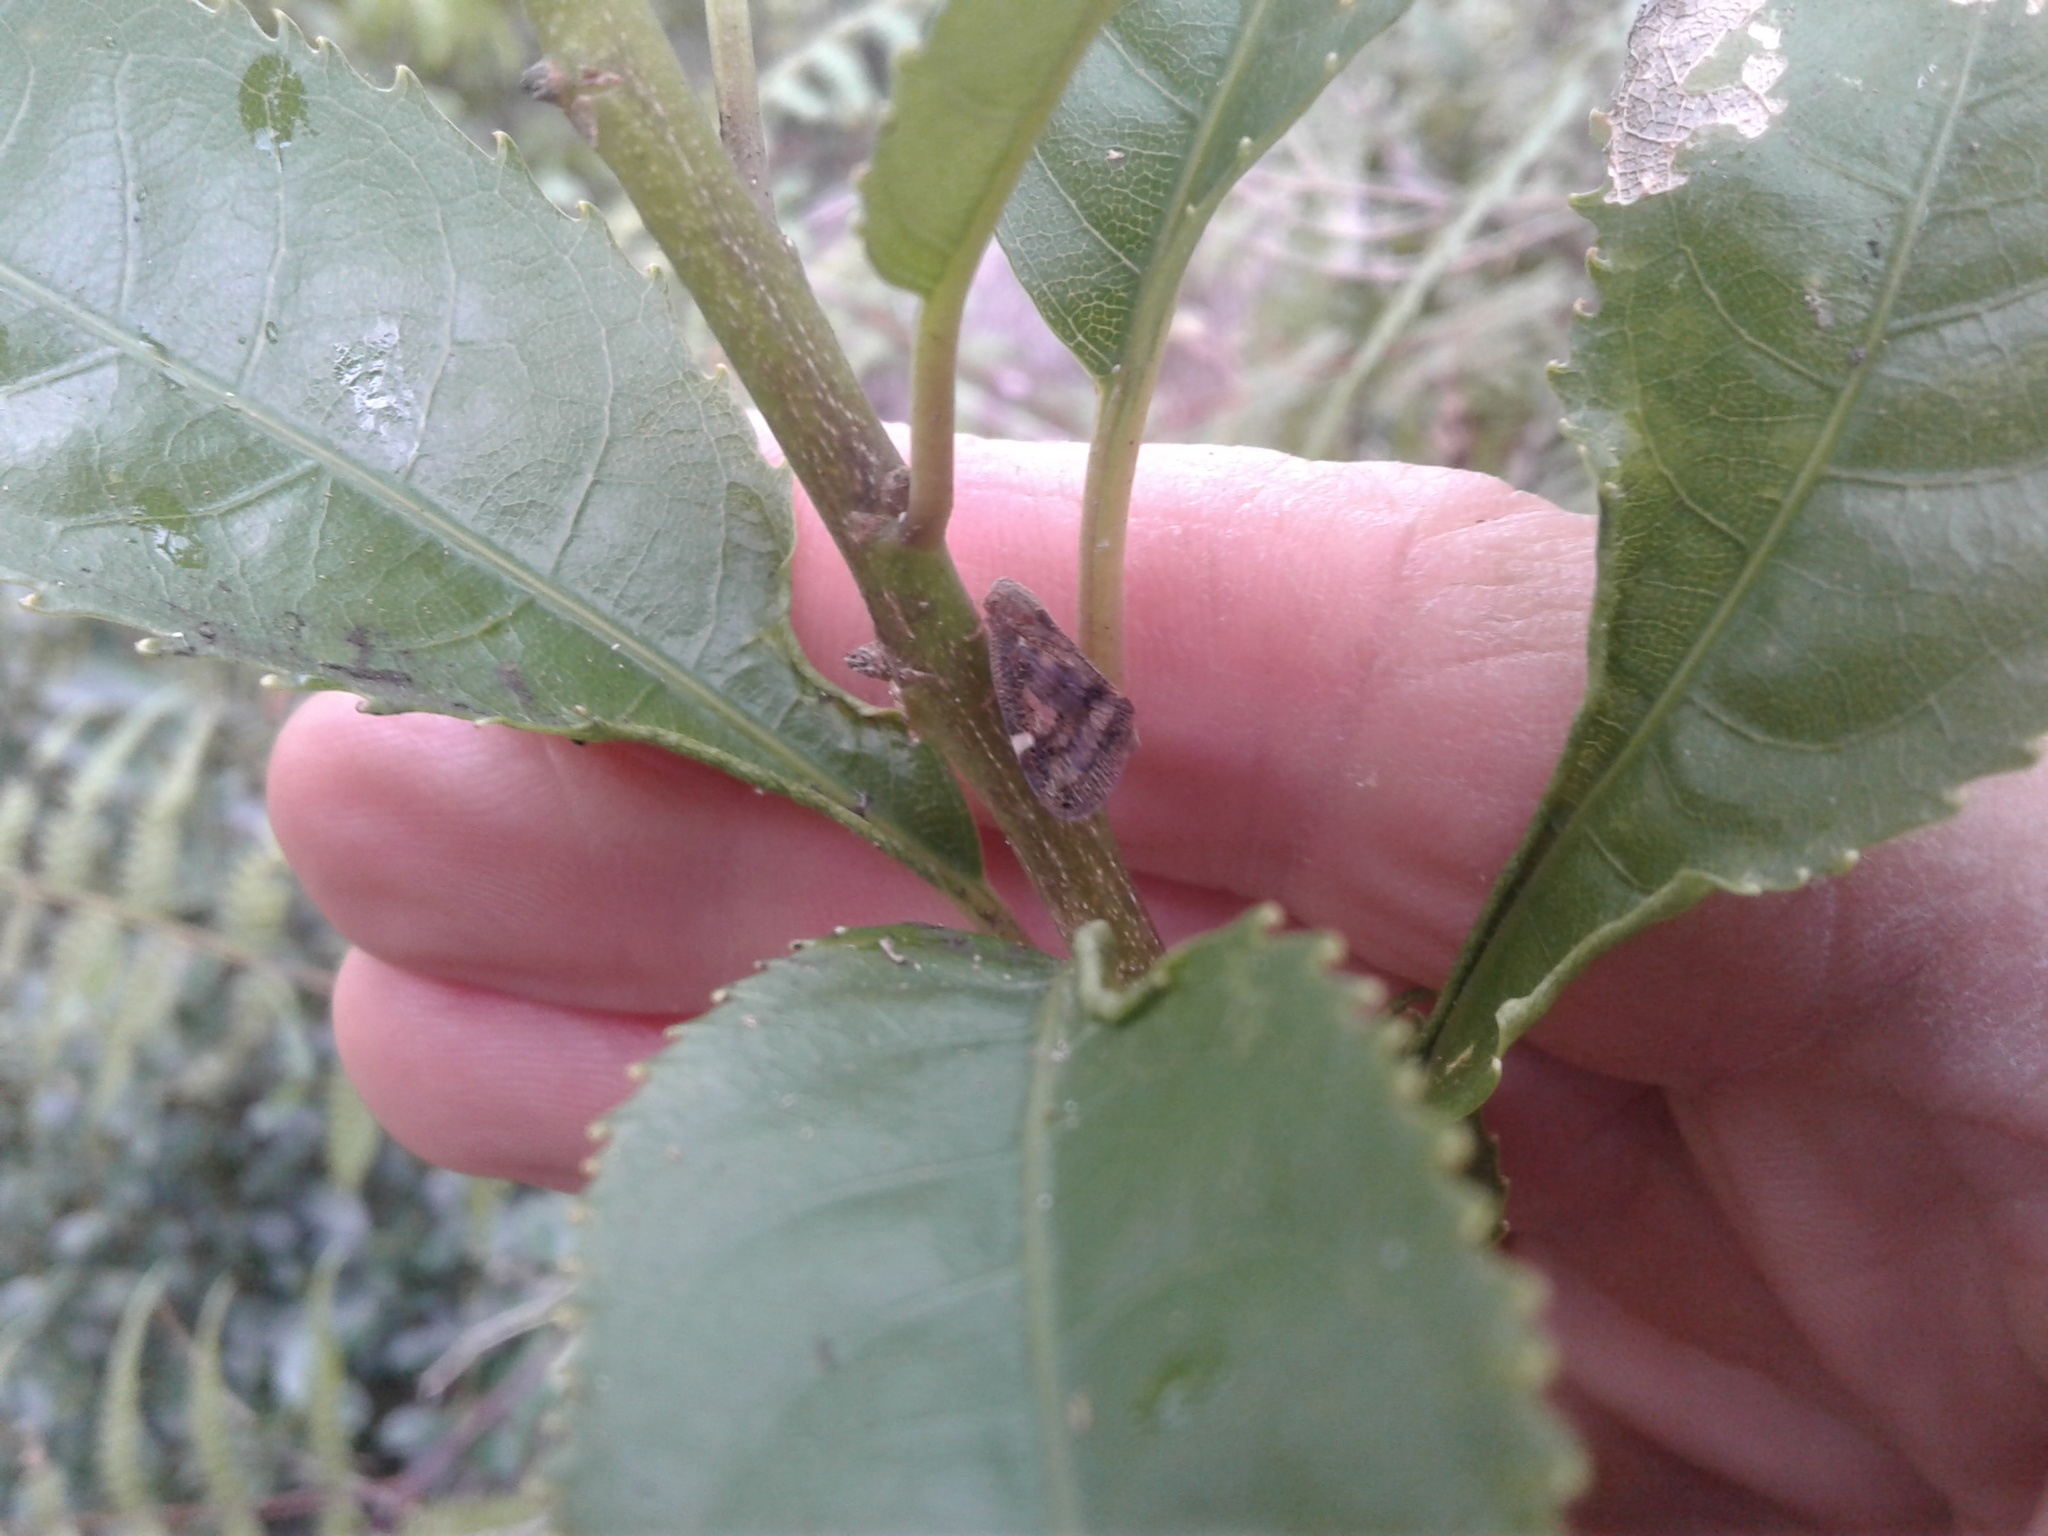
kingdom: Animalia
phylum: Arthropoda
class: Insecta
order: Hemiptera
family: Ricaniidae
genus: Scolypopa
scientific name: Scolypopa australis
